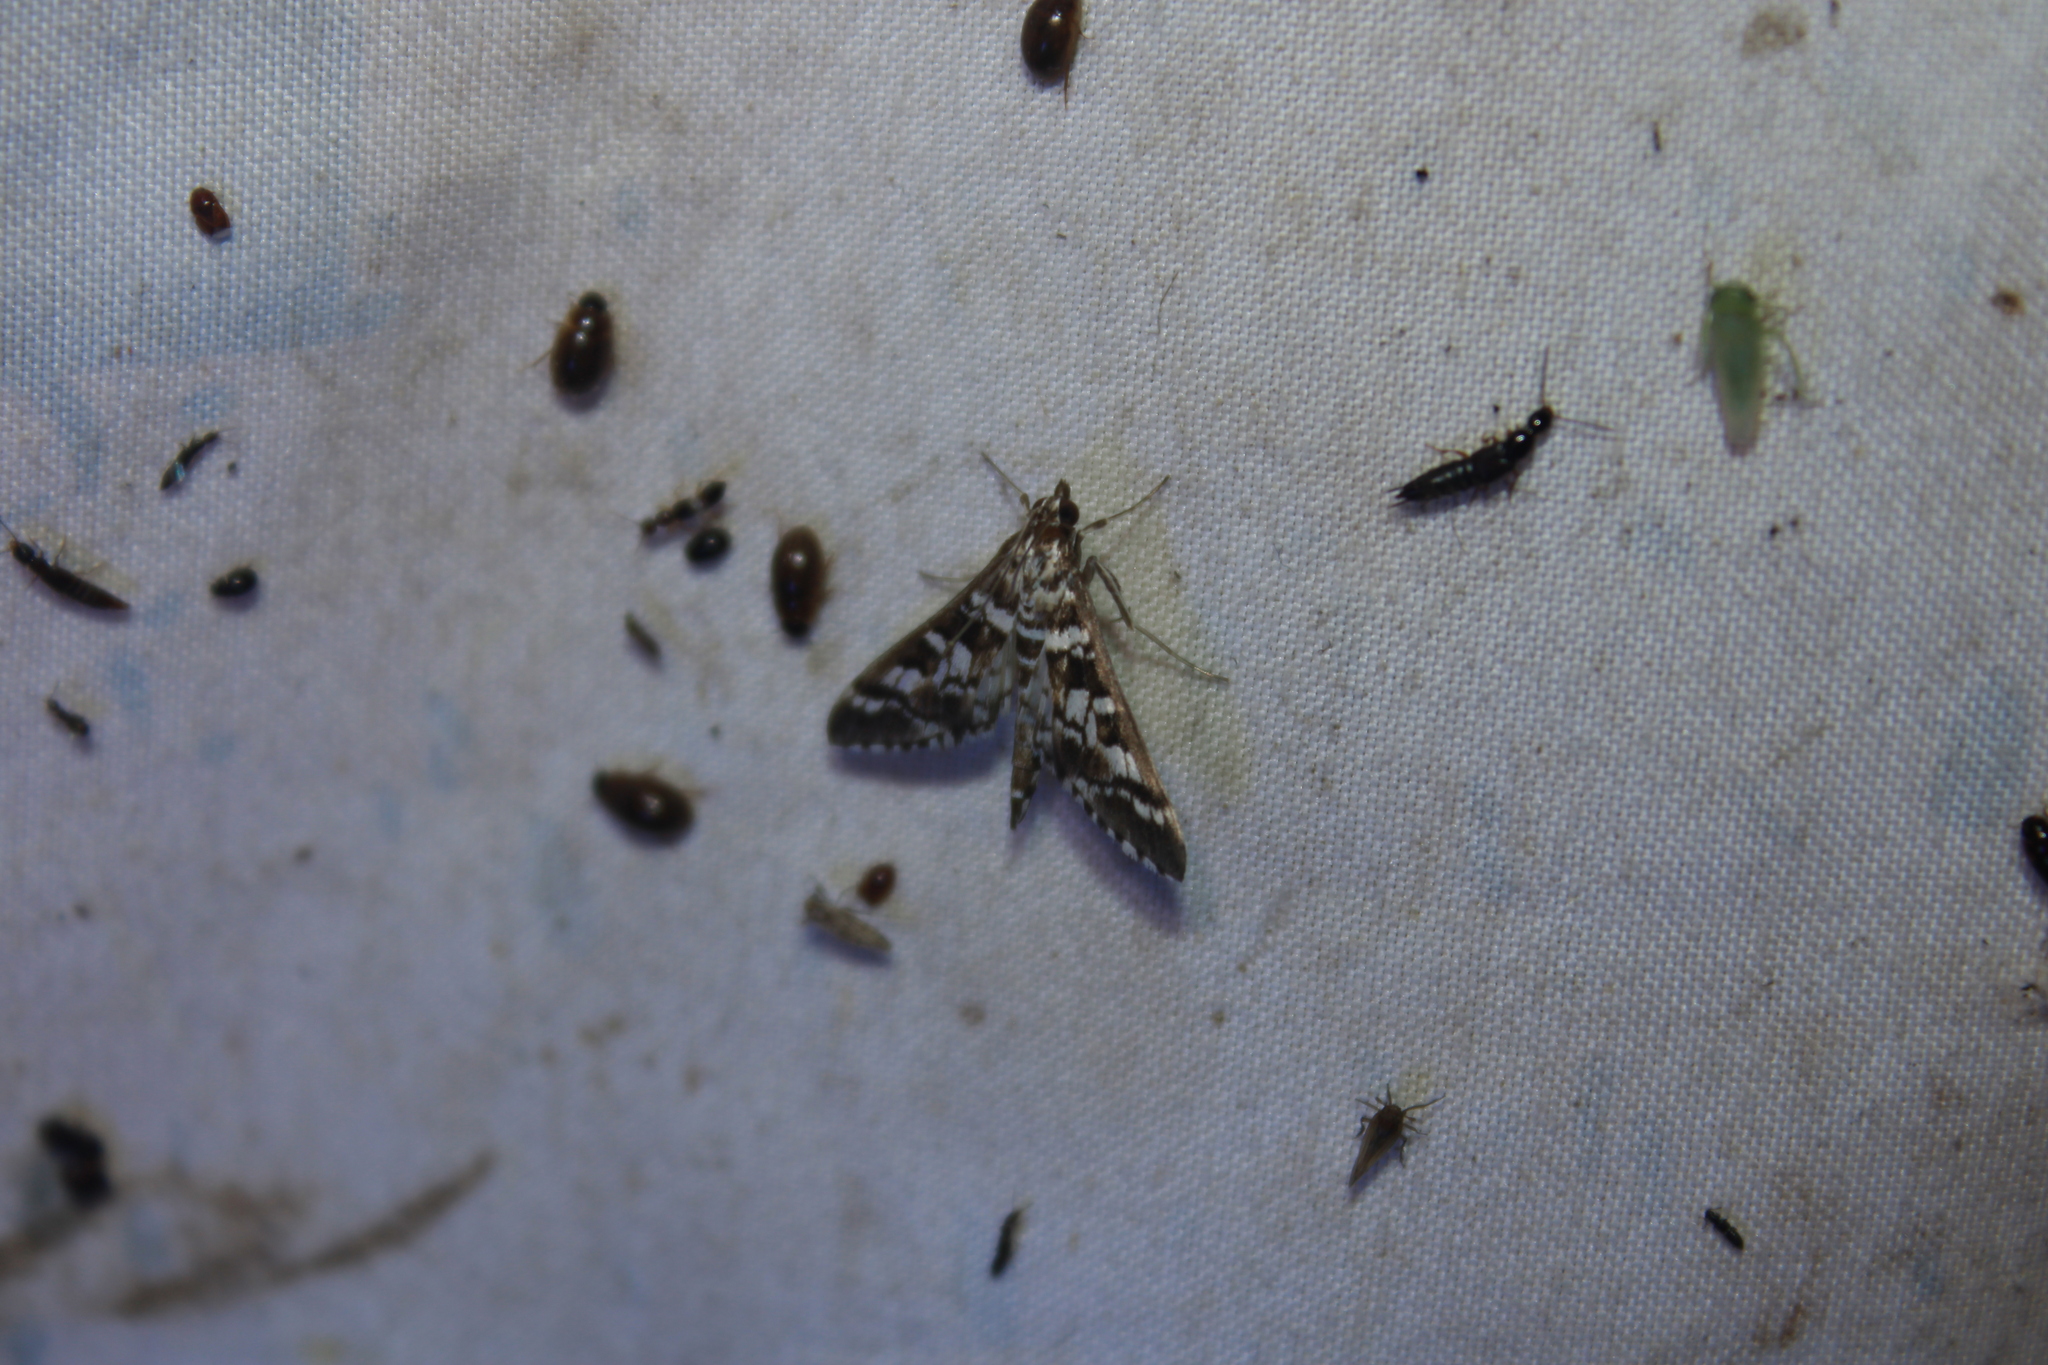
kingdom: Animalia
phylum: Arthropoda
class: Insecta
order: Lepidoptera
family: Crambidae
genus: Epipagis
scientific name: Epipagis forsythae
